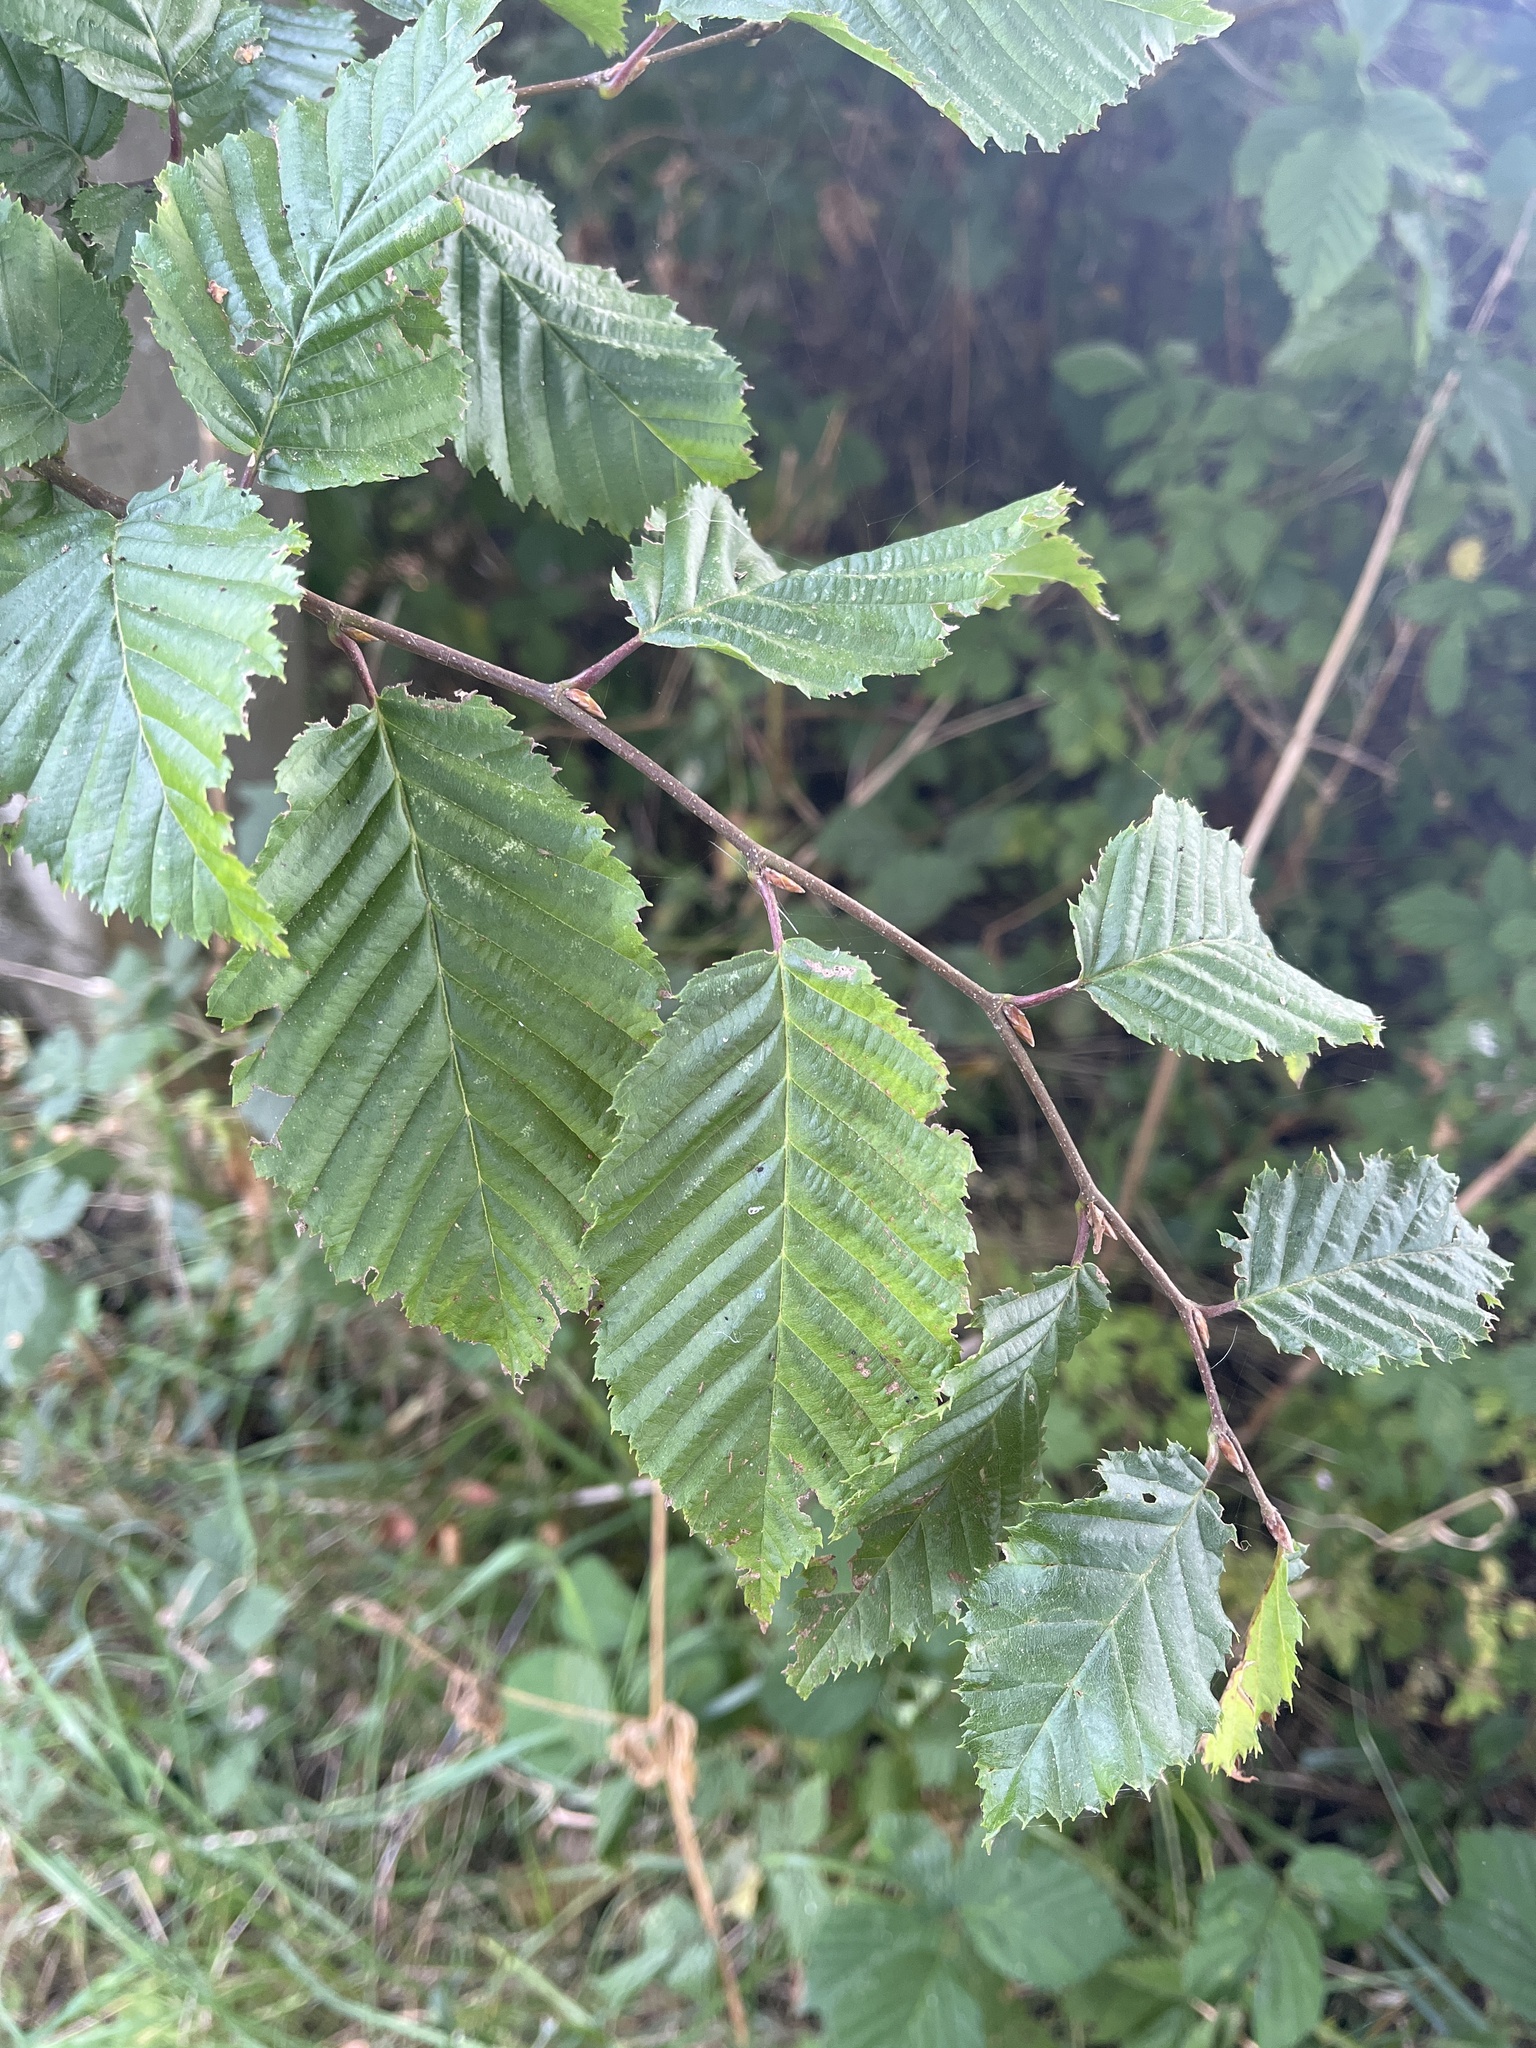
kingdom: Plantae
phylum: Tracheophyta
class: Magnoliopsida
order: Fagales
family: Betulaceae
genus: Carpinus
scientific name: Carpinus betulus
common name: Hornbeam
